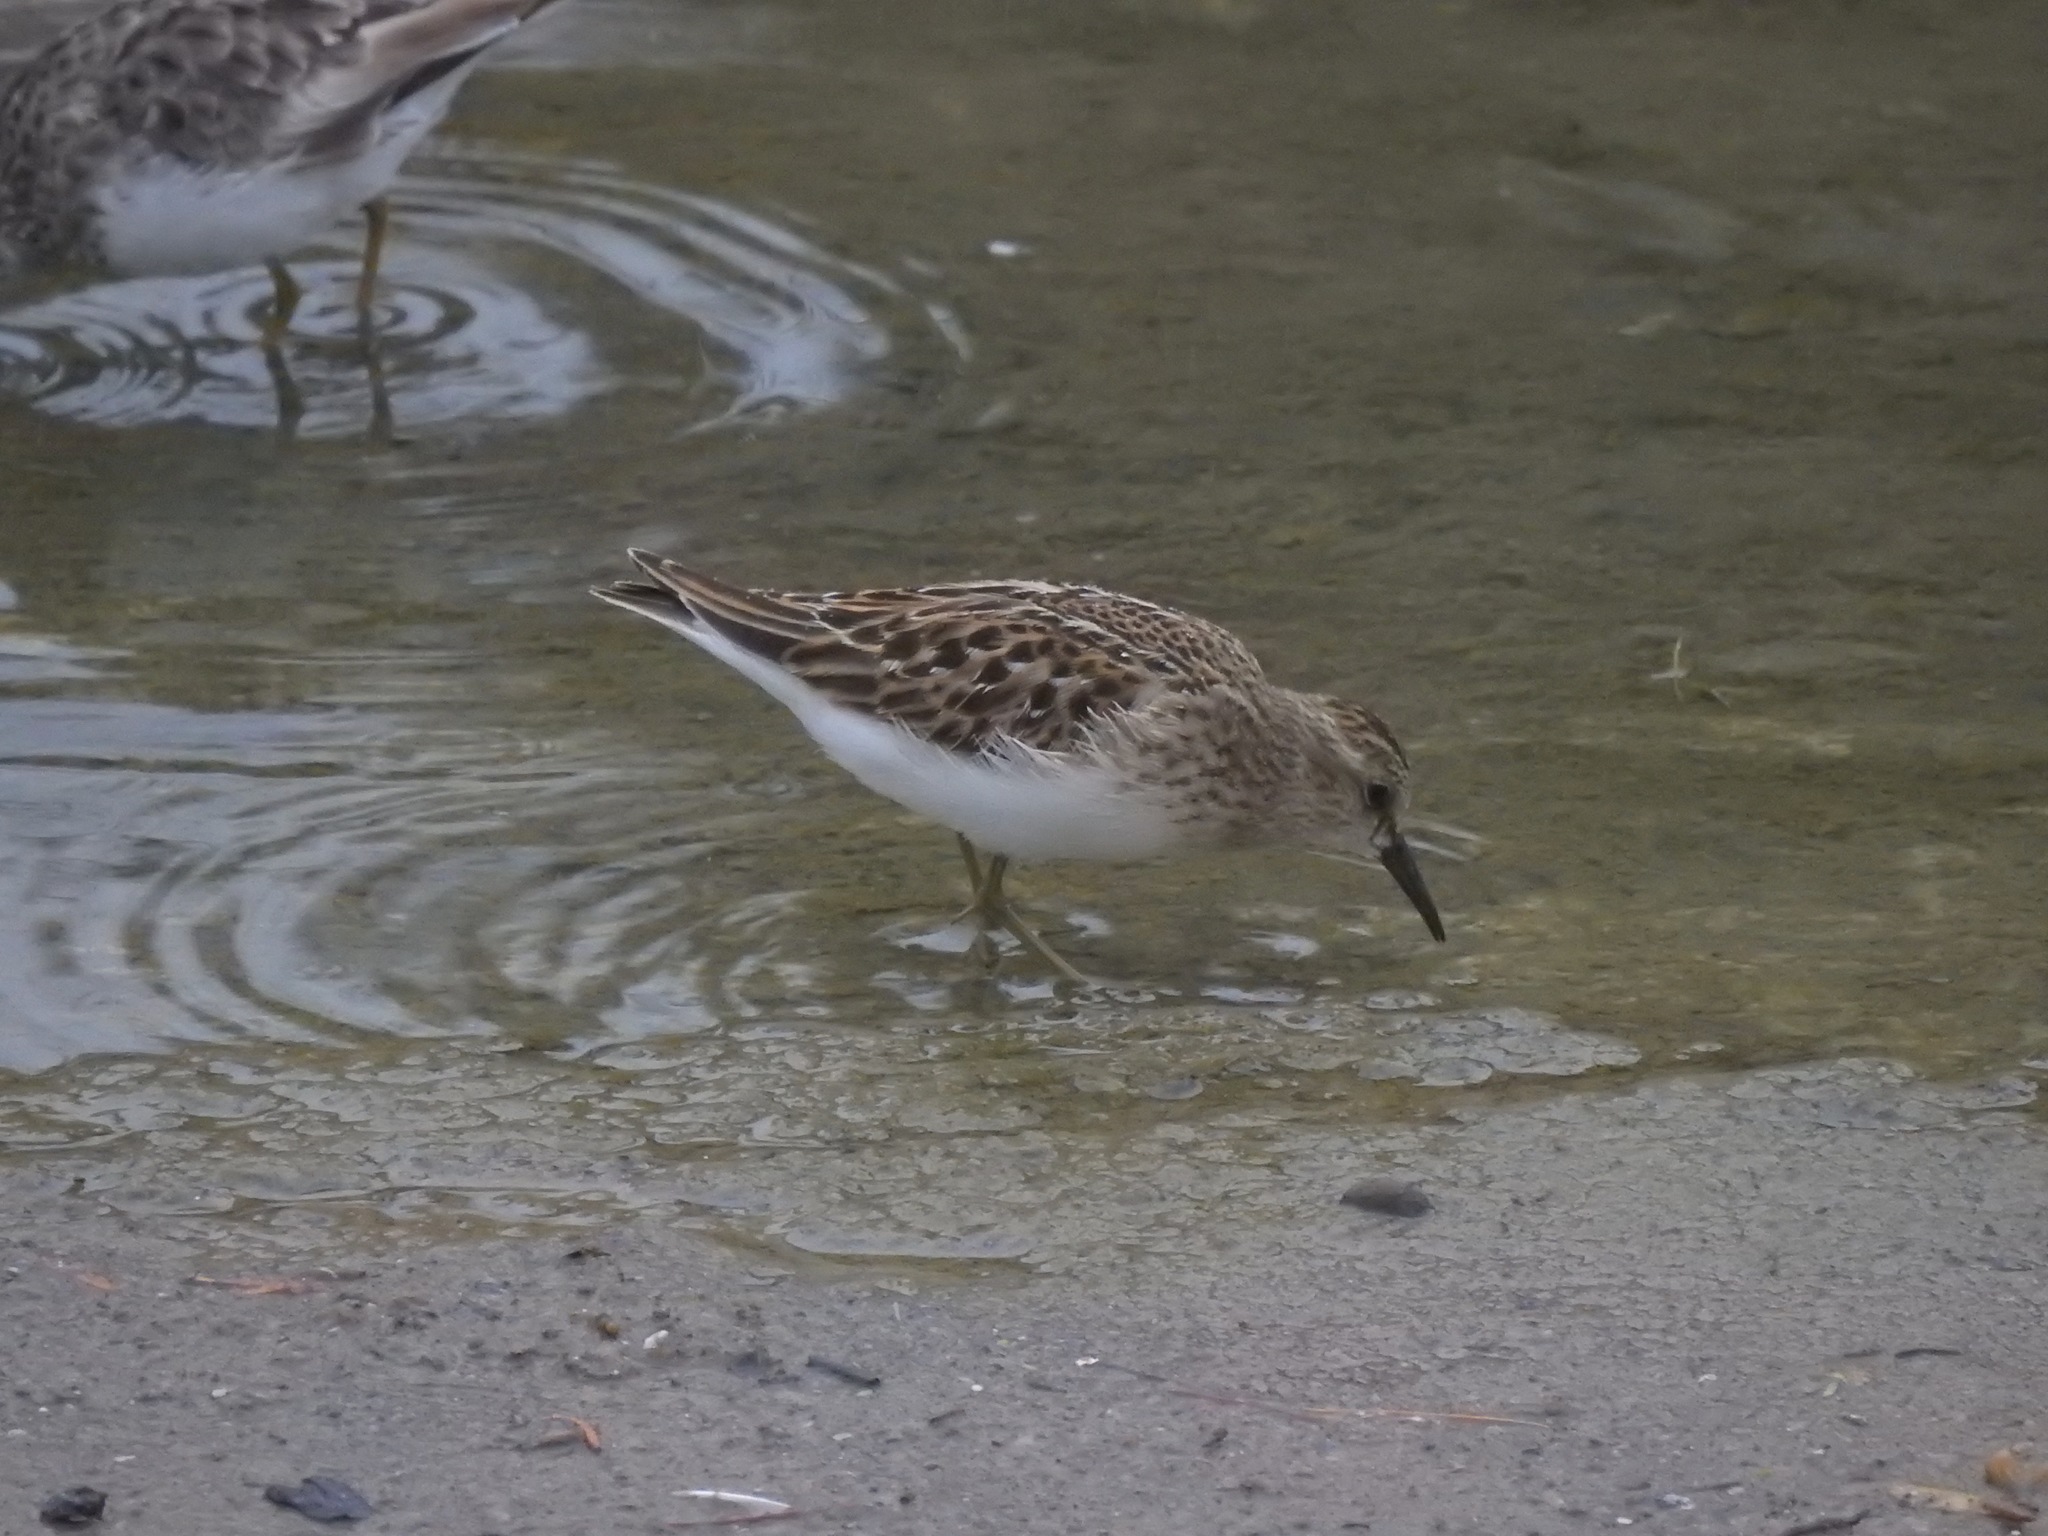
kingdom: Animalia
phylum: Chordata
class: Aves
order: Charadriiformes
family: Scolopacidae
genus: Calidris
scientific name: Calidris minutilla
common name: Least sandpiper
